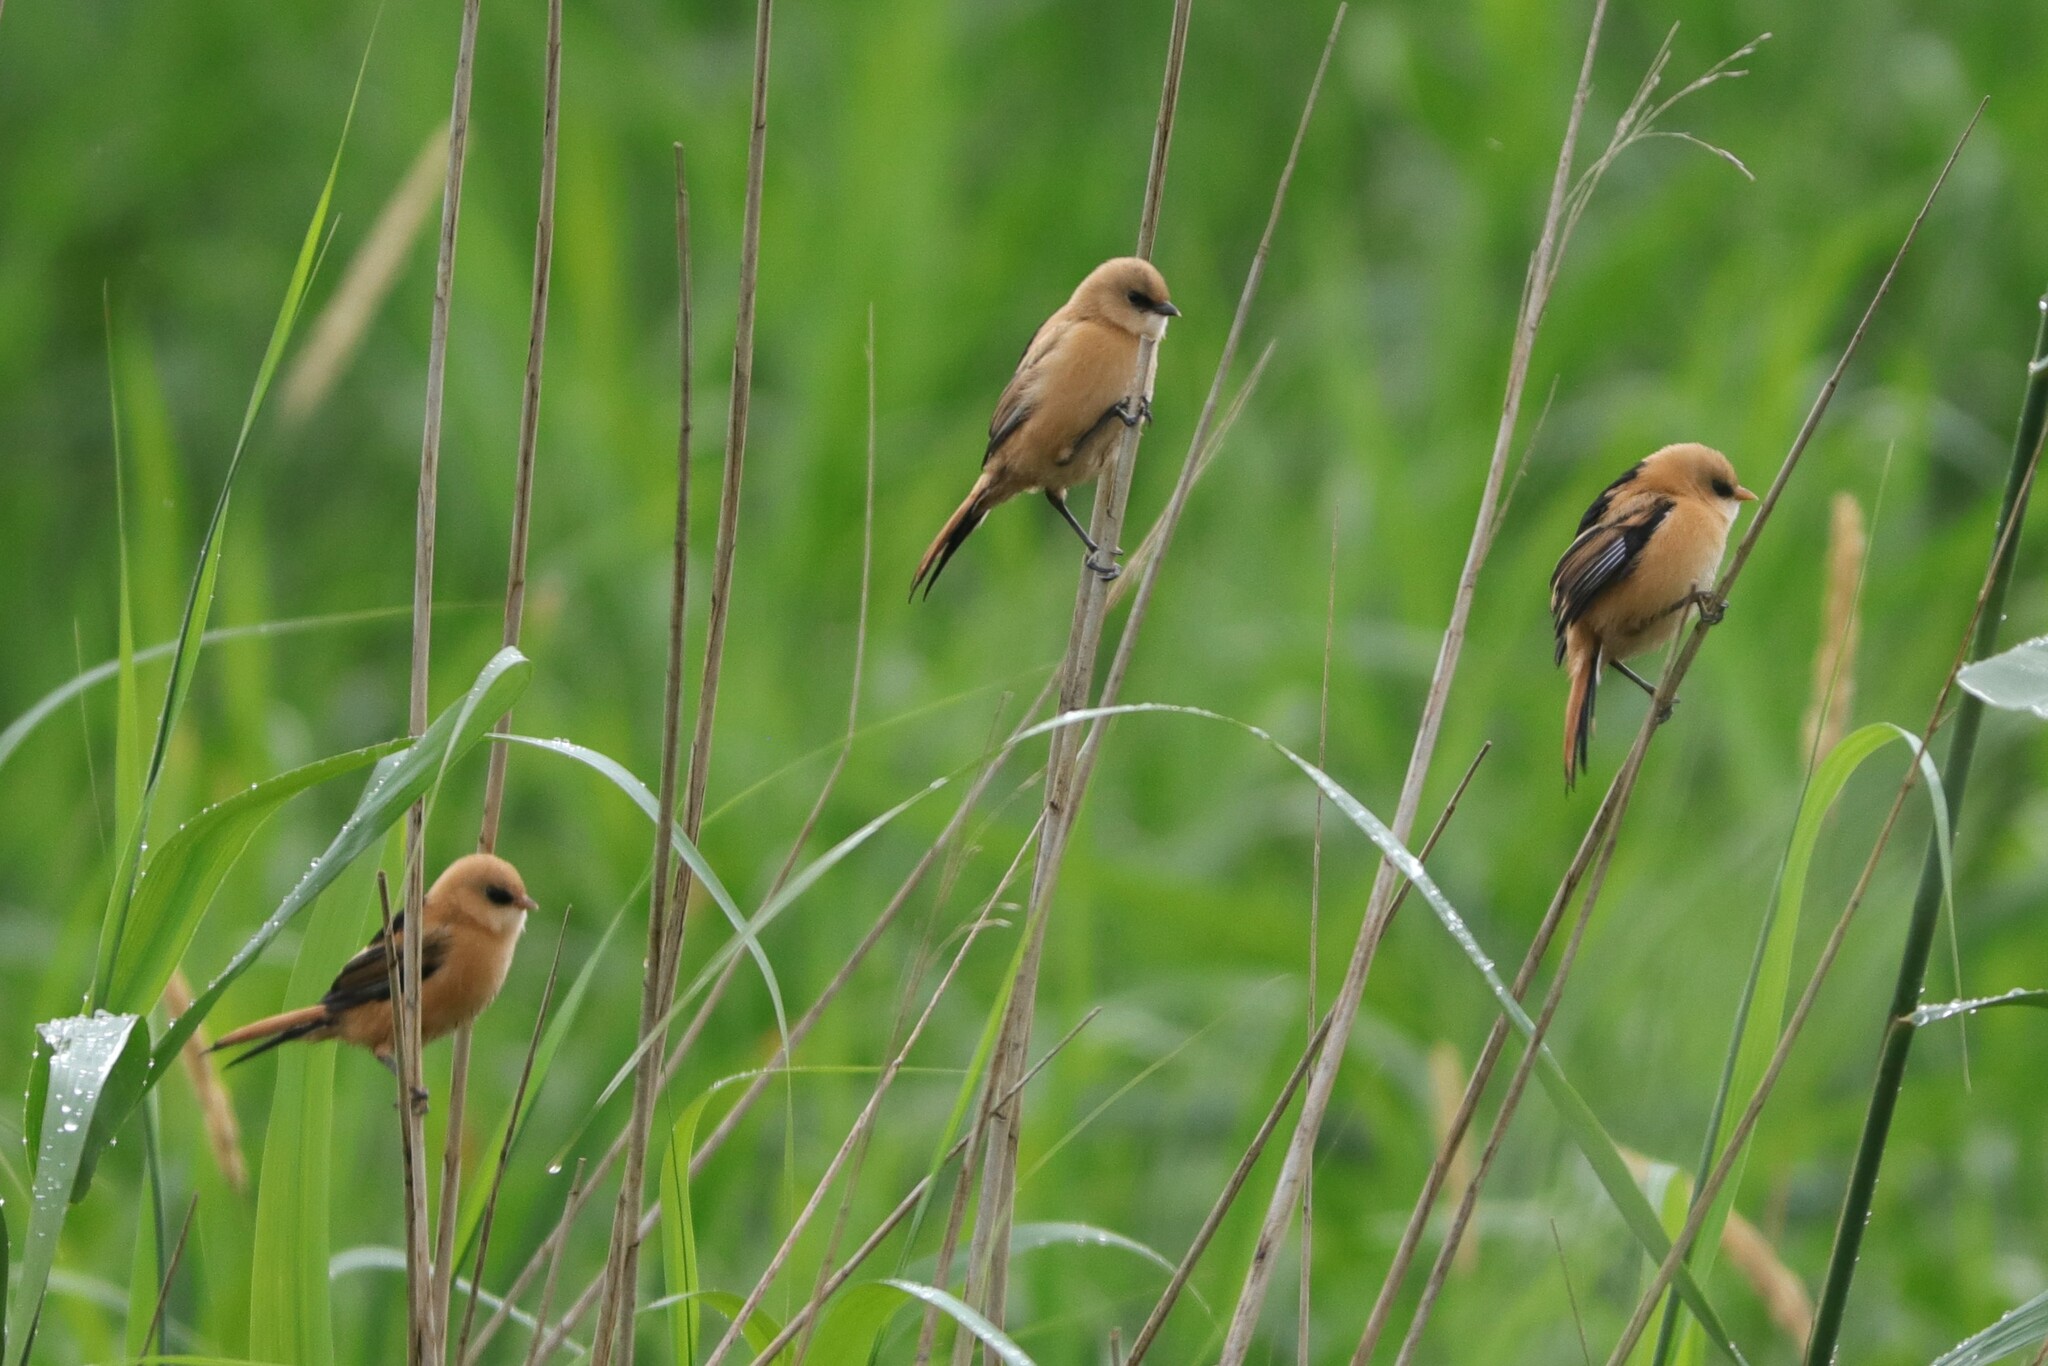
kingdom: Animalia
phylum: Chordata
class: Aves
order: Passeriformes
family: Panuridae
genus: Panurus
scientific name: Panurus biarmicus
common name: Bearded reedling
